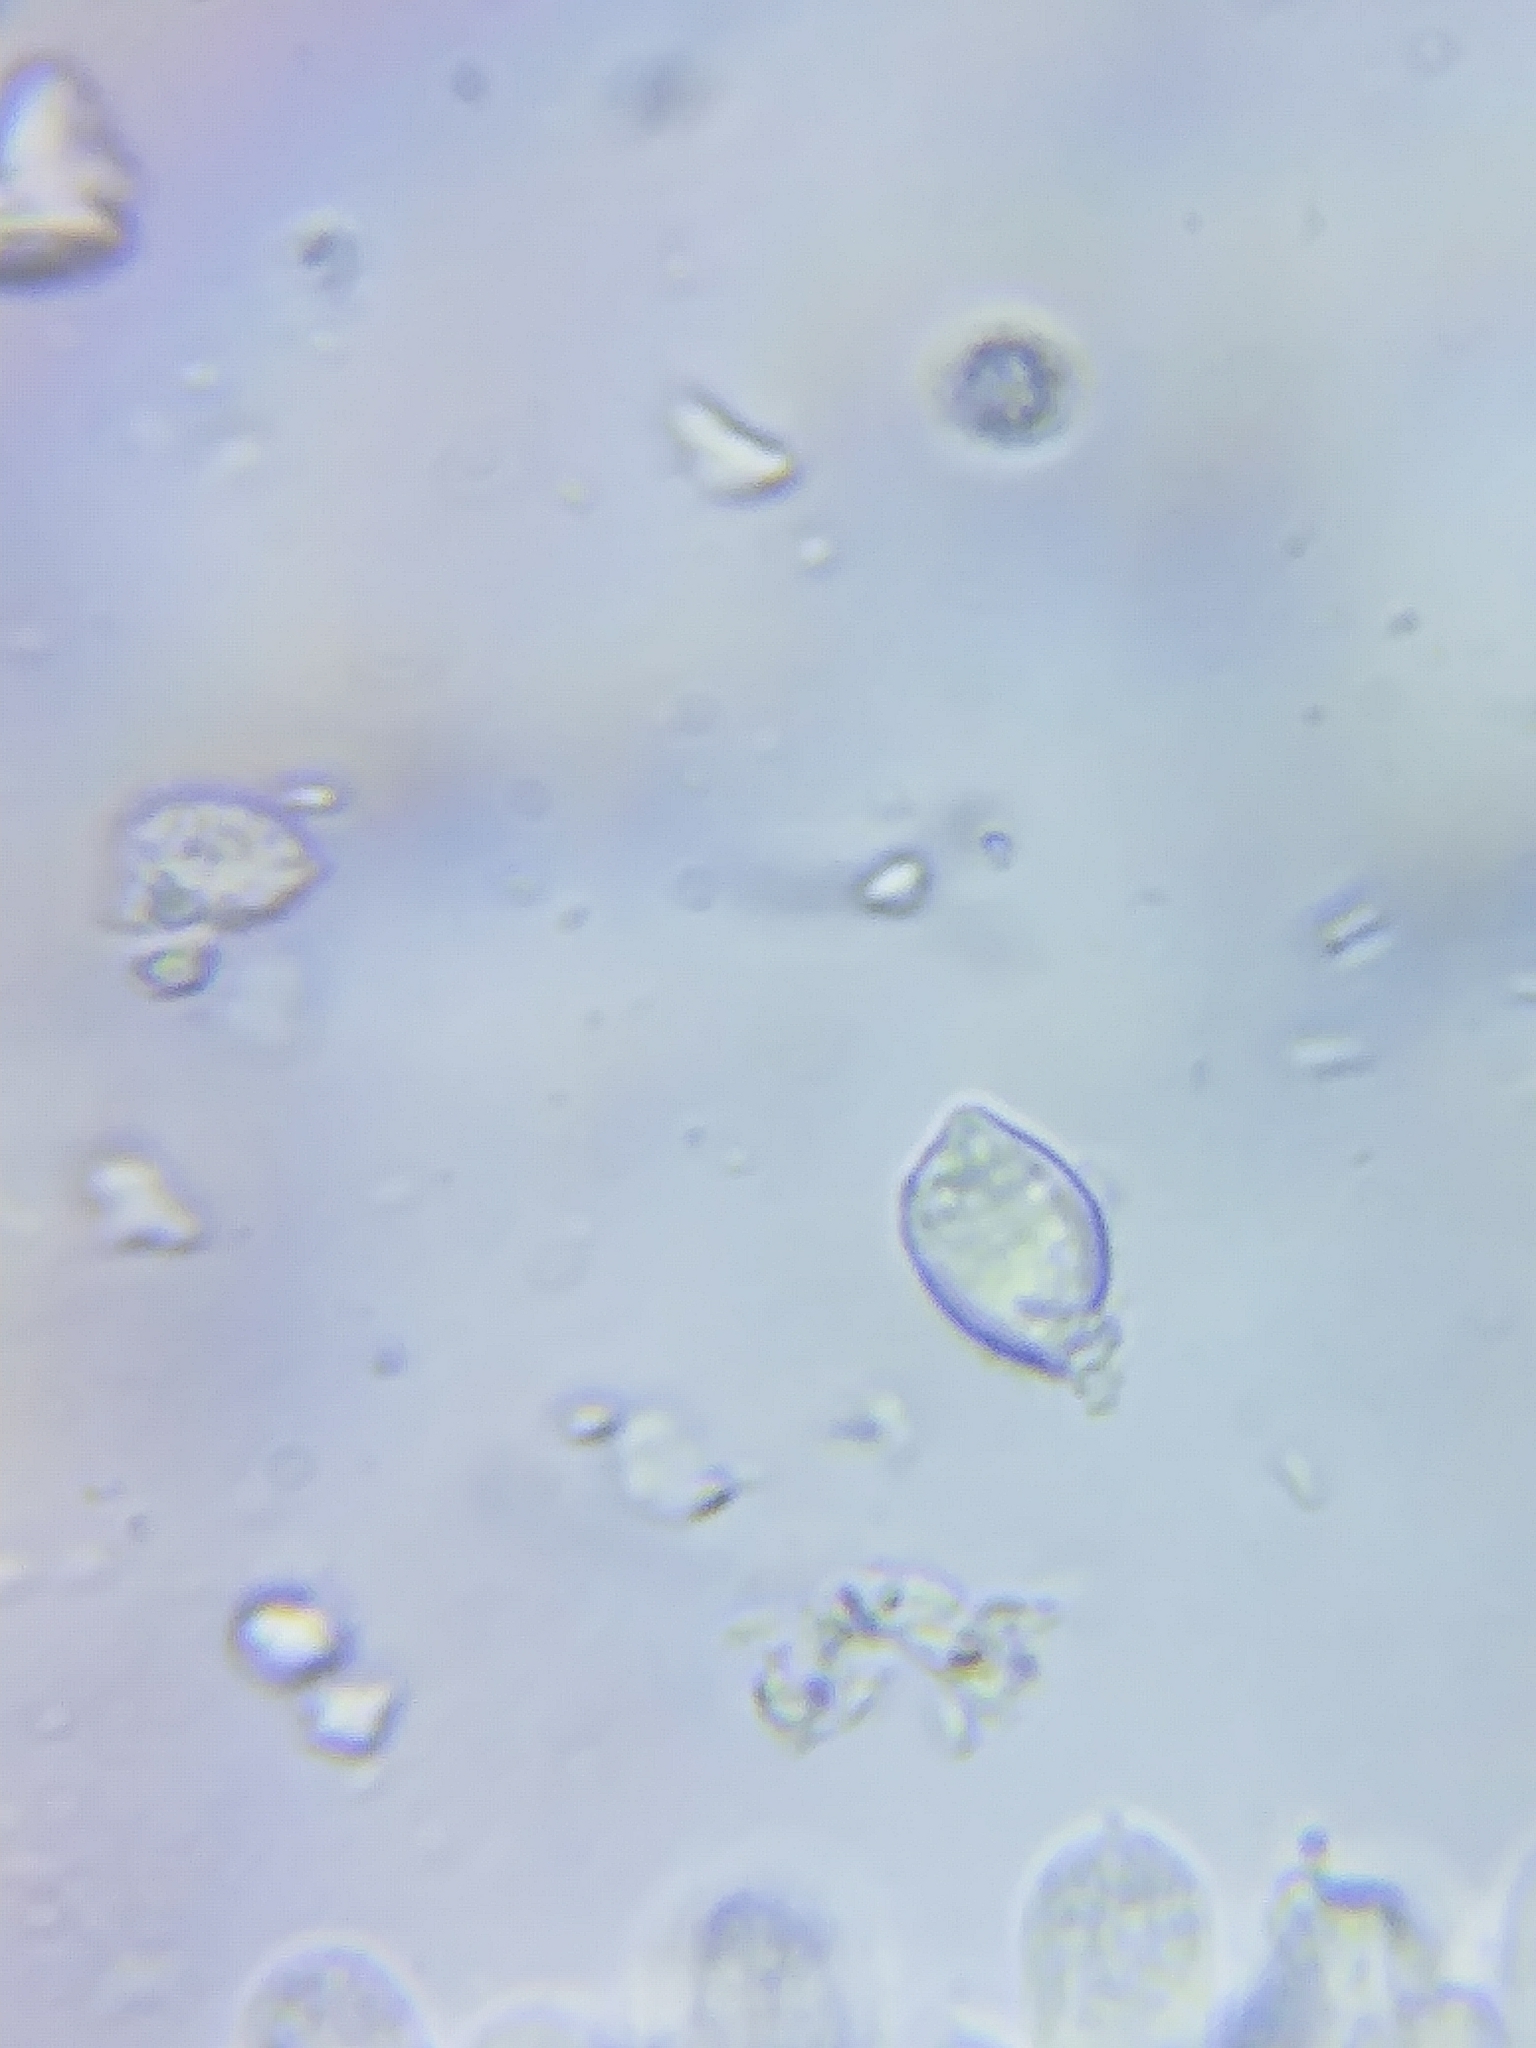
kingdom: Fungi
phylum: Basidiomycota
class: Agaricomycetes
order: Agaricales
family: Tricholomataceae
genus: Tricholoma
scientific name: Tricholoma saponaceum
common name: Soapy trich
